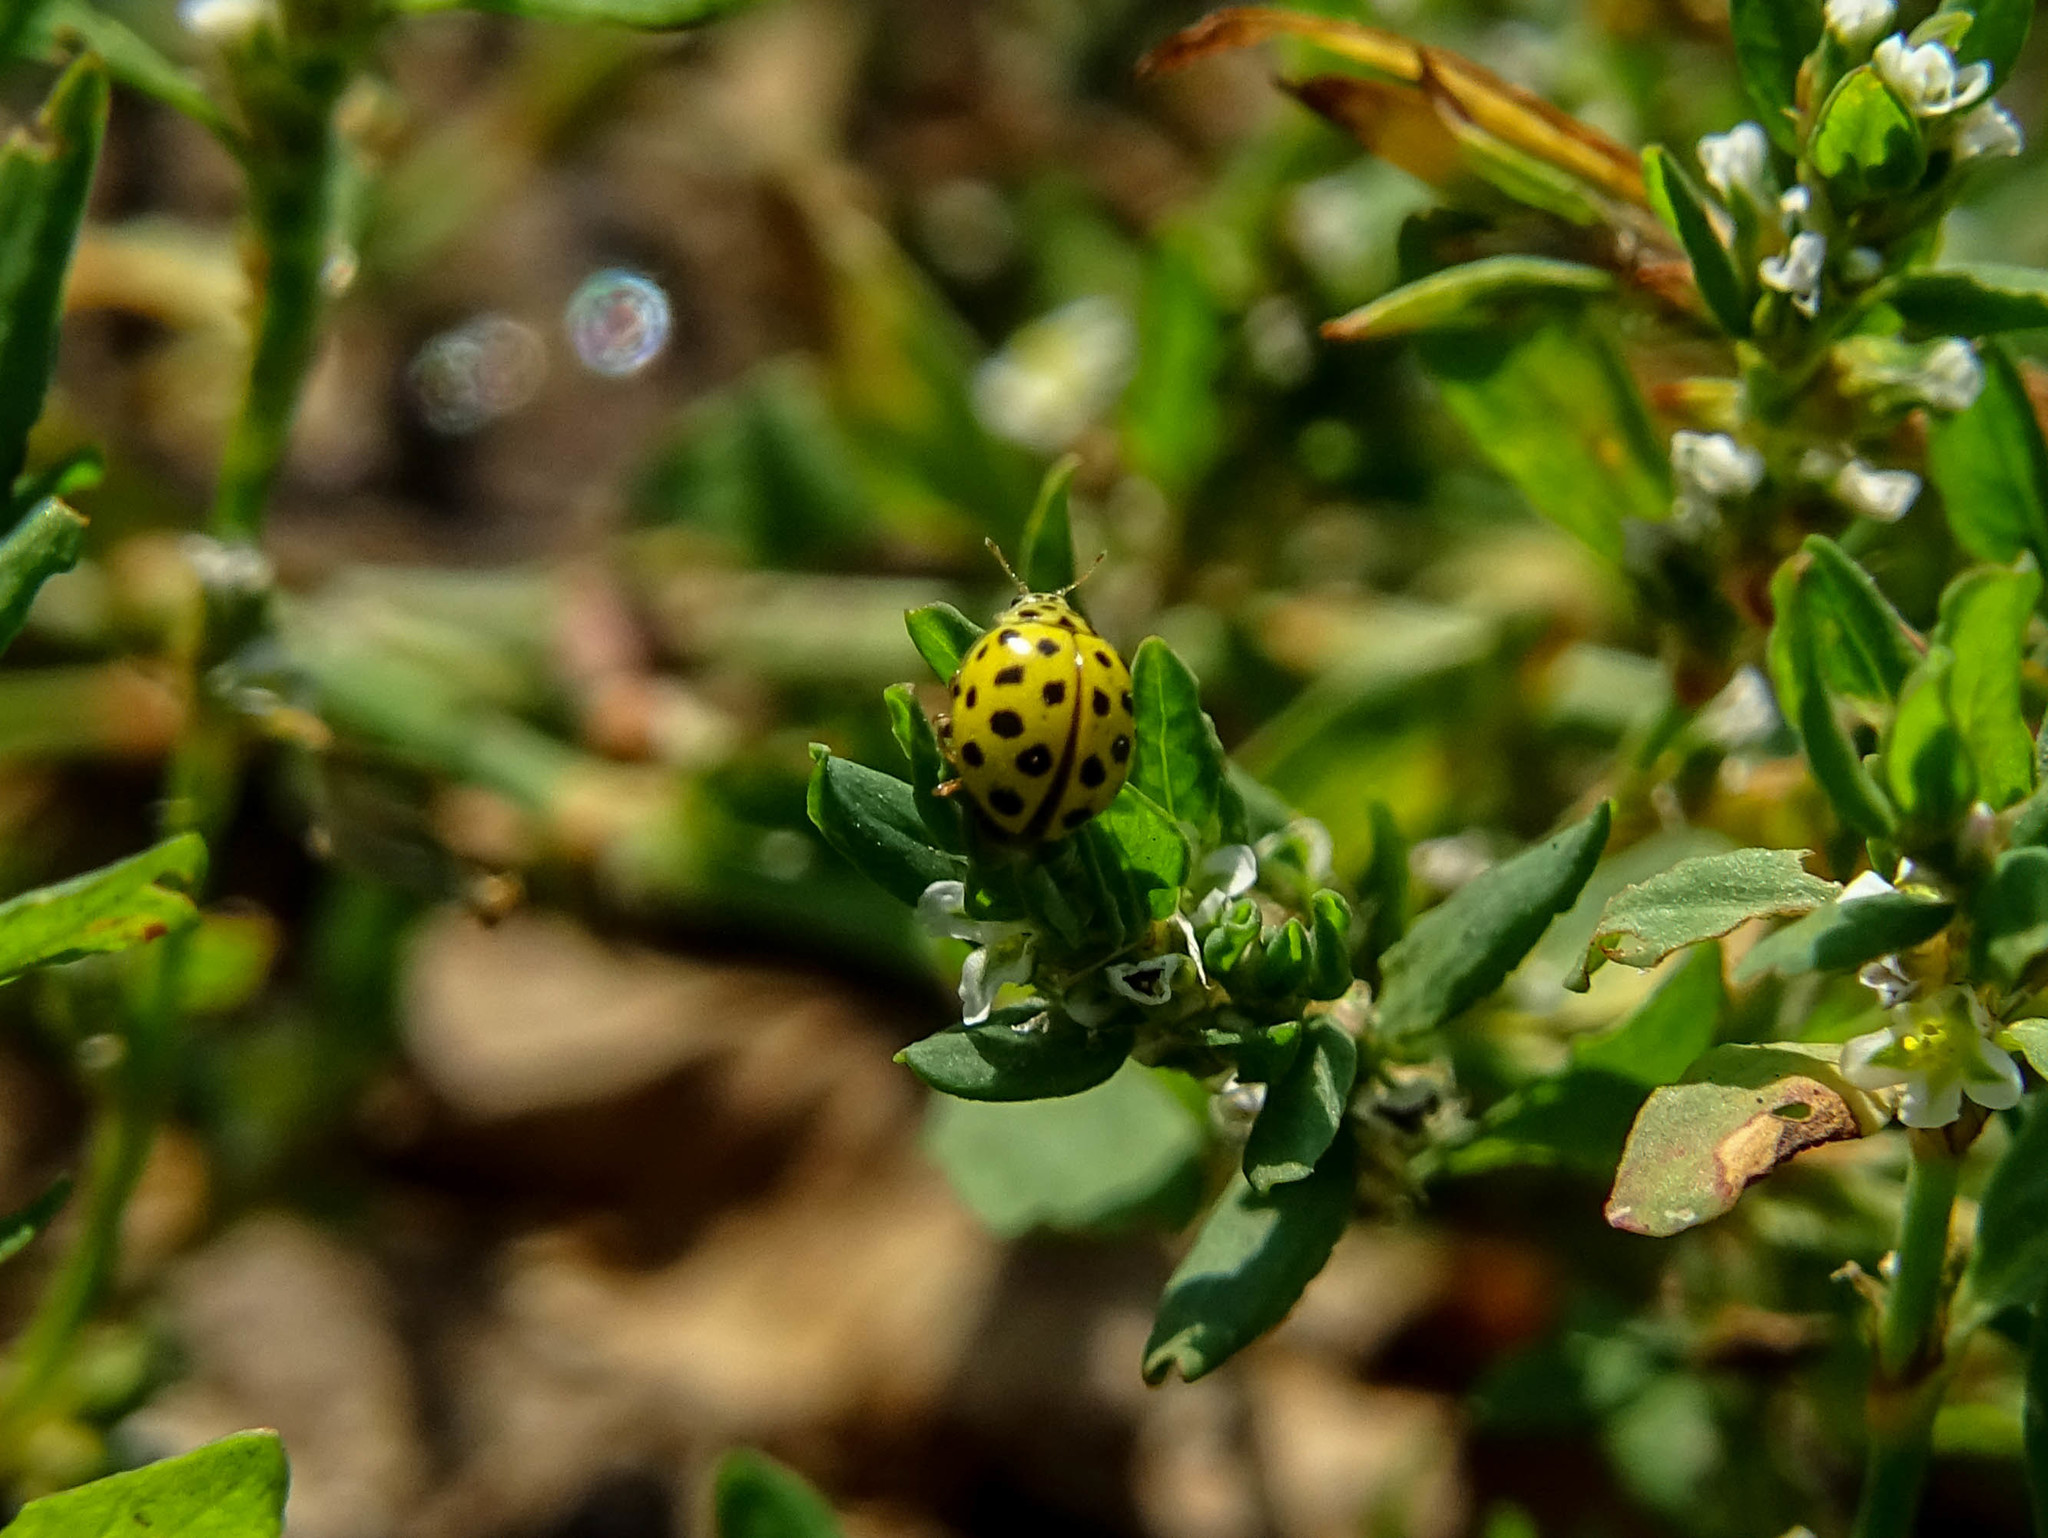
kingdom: Animalia
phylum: Arthropoda
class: Insecta
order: Coleoptera
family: Coccinellidae
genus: Psyllobora
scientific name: Psyllobora vigintiduopunctata
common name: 22-spot ladybird
